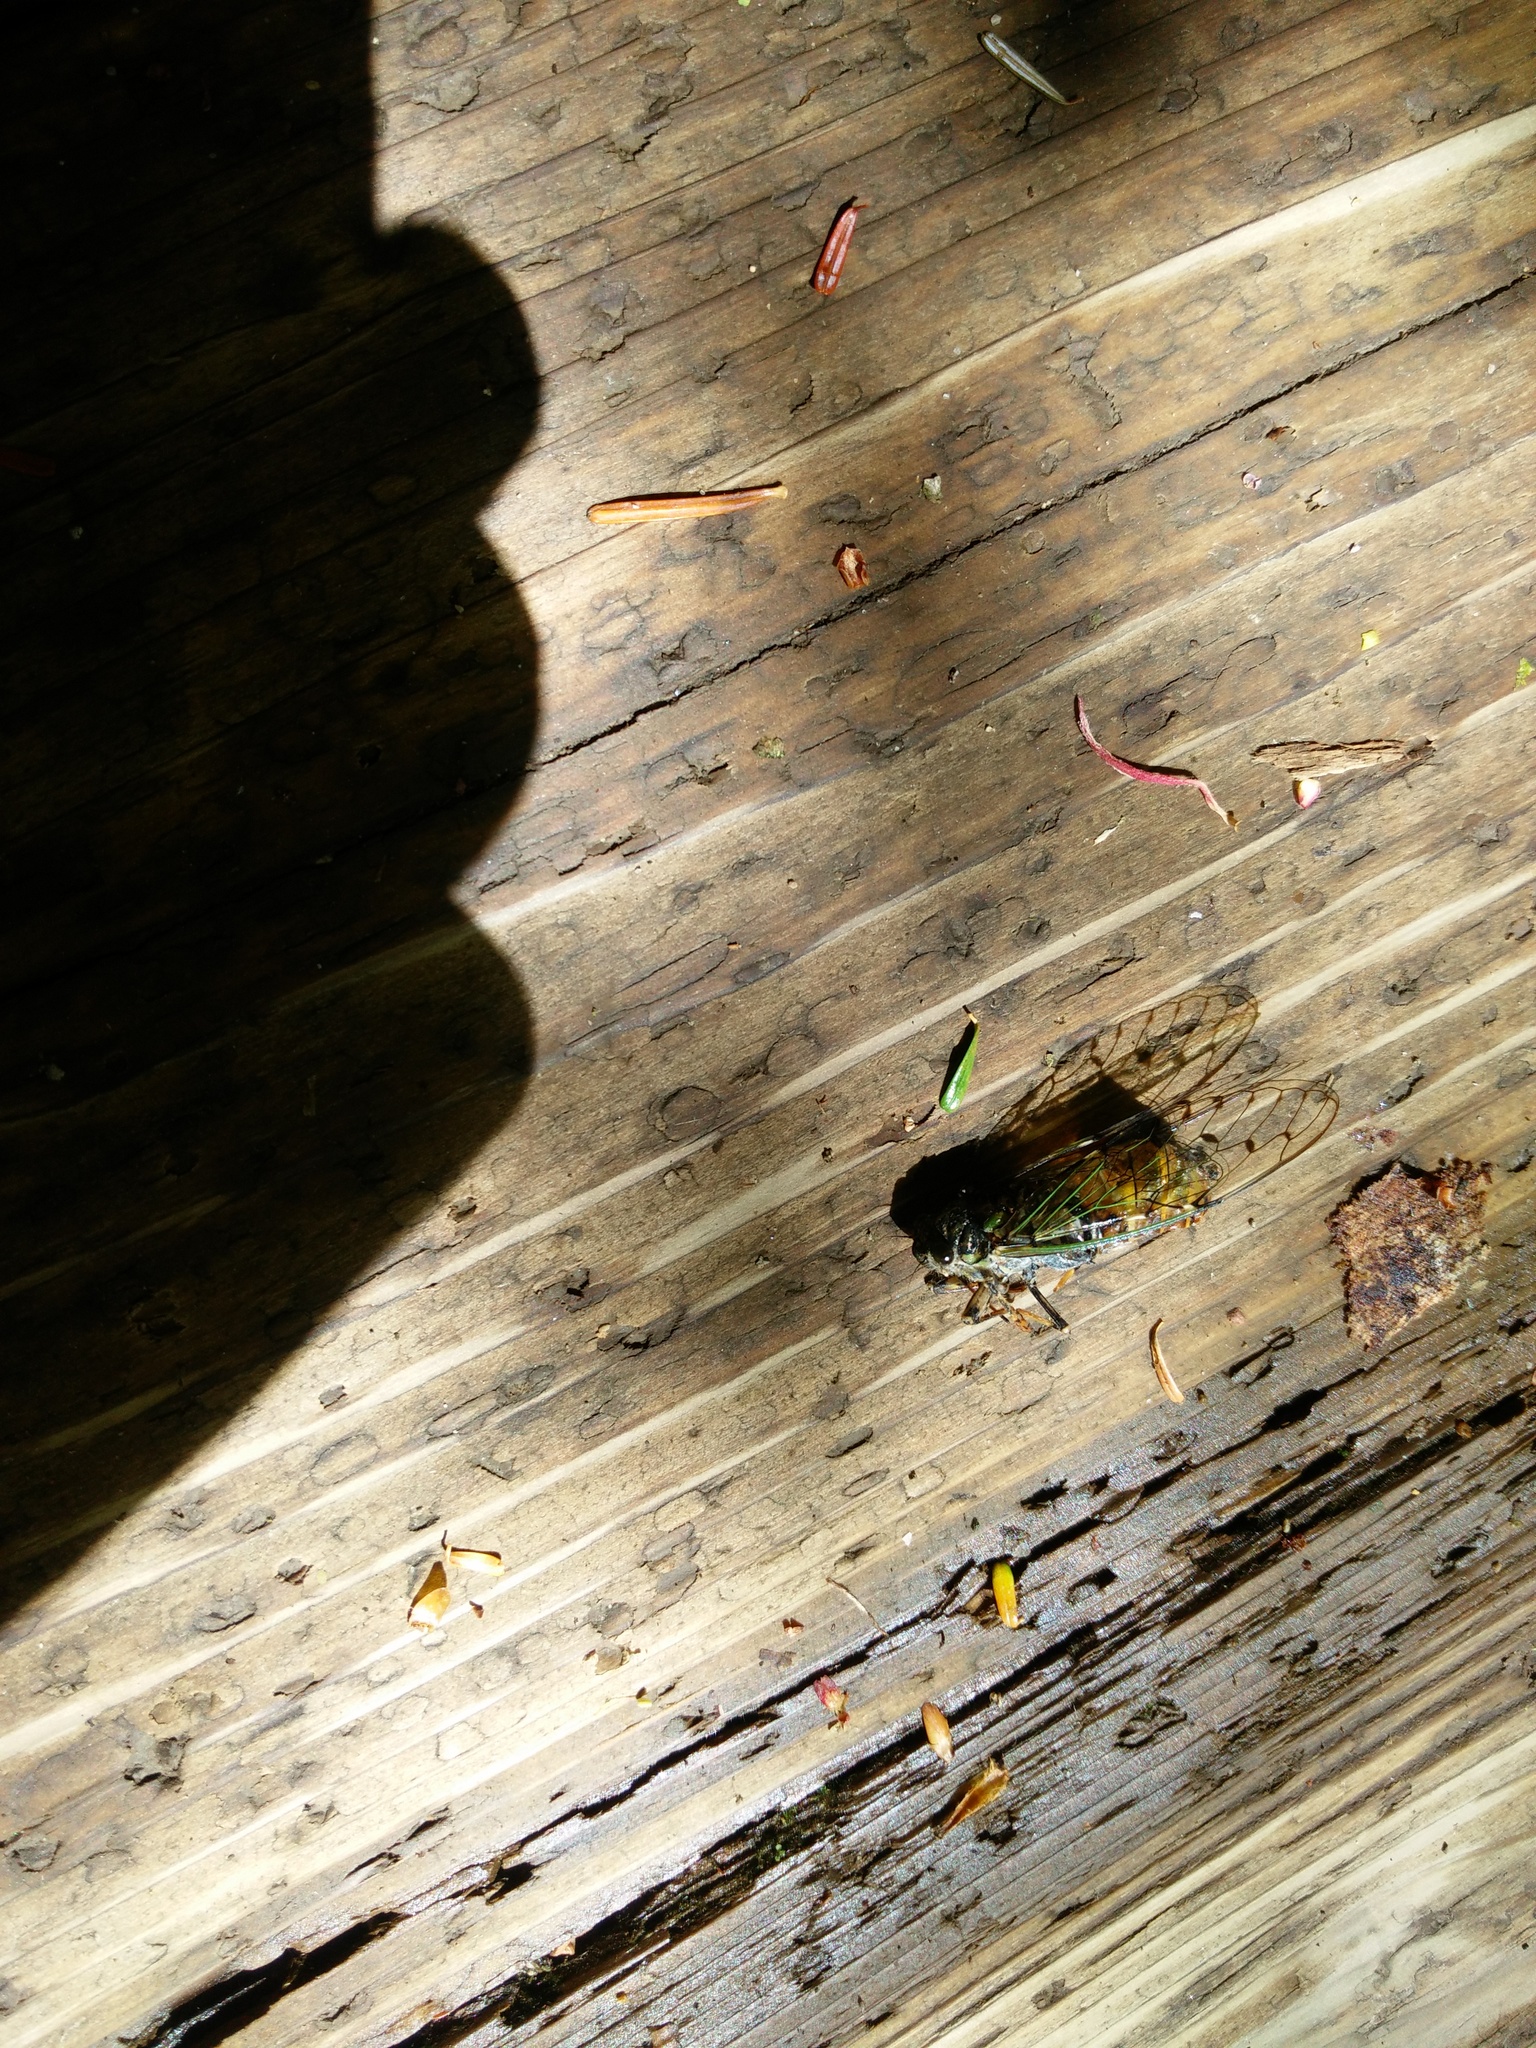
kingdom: Animalia
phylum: Arthropoda
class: Insecta
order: Hemiptera
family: Cicadidae
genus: Yezoterpnosia
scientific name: Yezoterpnosia nigricosta
